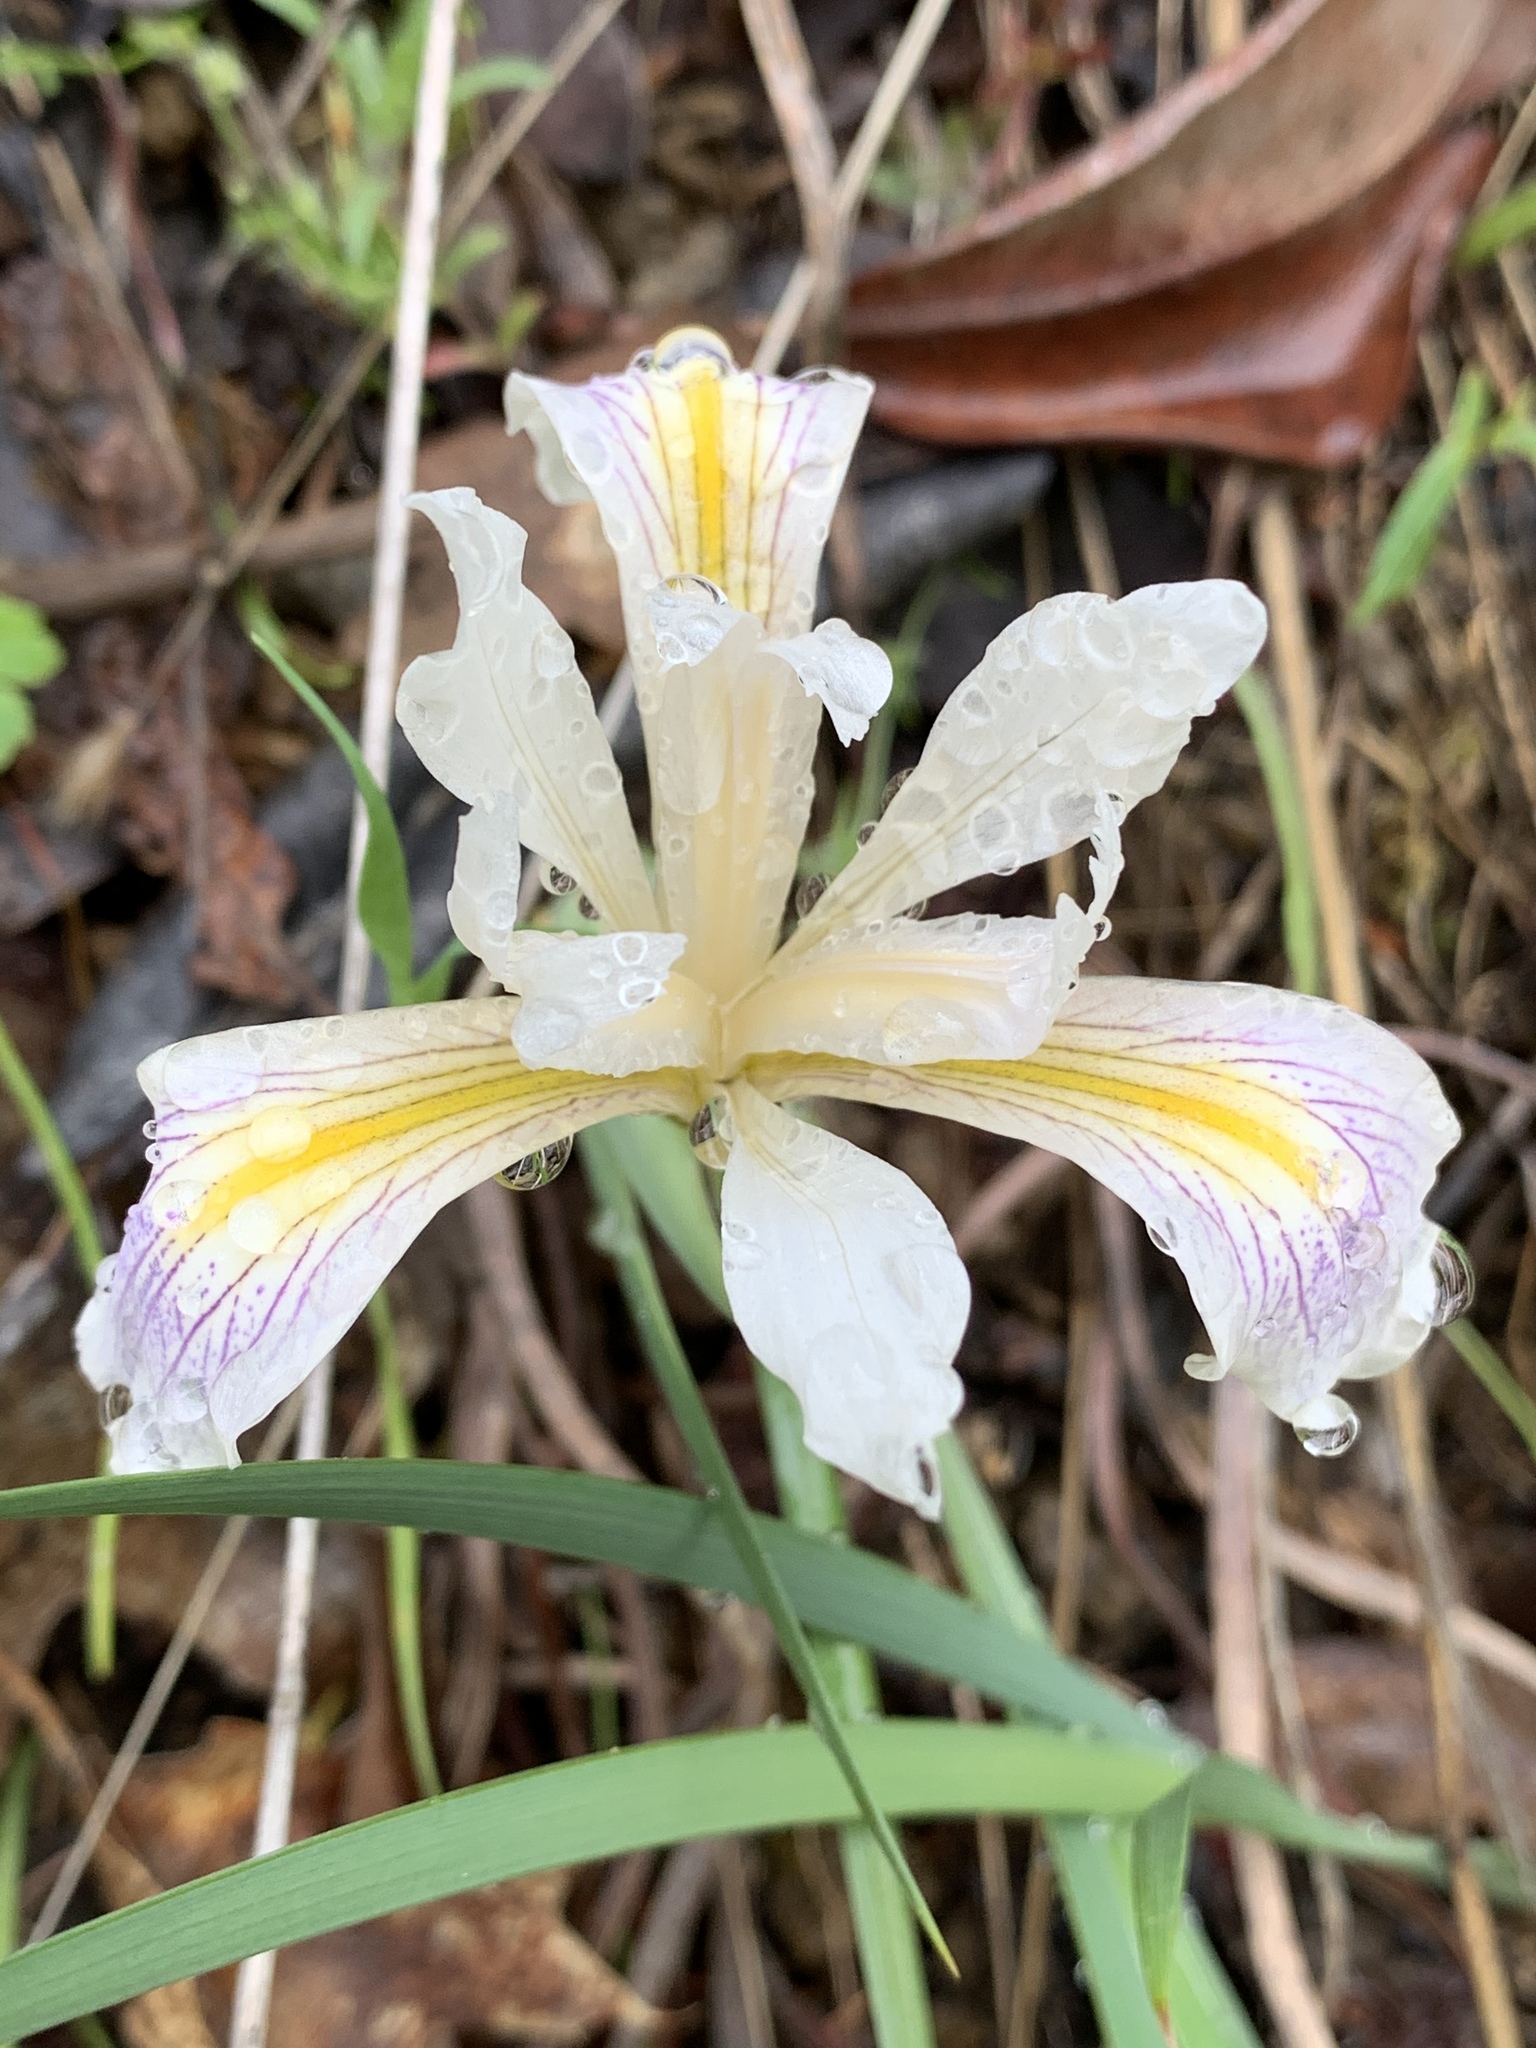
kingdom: Plantae
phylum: Tracheophyta
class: Liliopsida
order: Asparagales
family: Iridaceae
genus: Iris
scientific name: Iris fernaldii
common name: Fernald's iris
